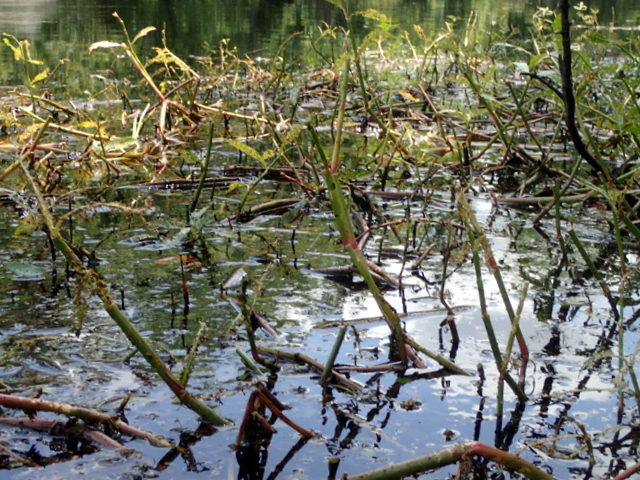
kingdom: Plantae
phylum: Tracheophyta
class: Magnoliopsida
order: Caryophyllales
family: Amaranthaceae
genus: Alternanthera
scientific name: Alternanthera philoxeroides
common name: Alligatorweed
